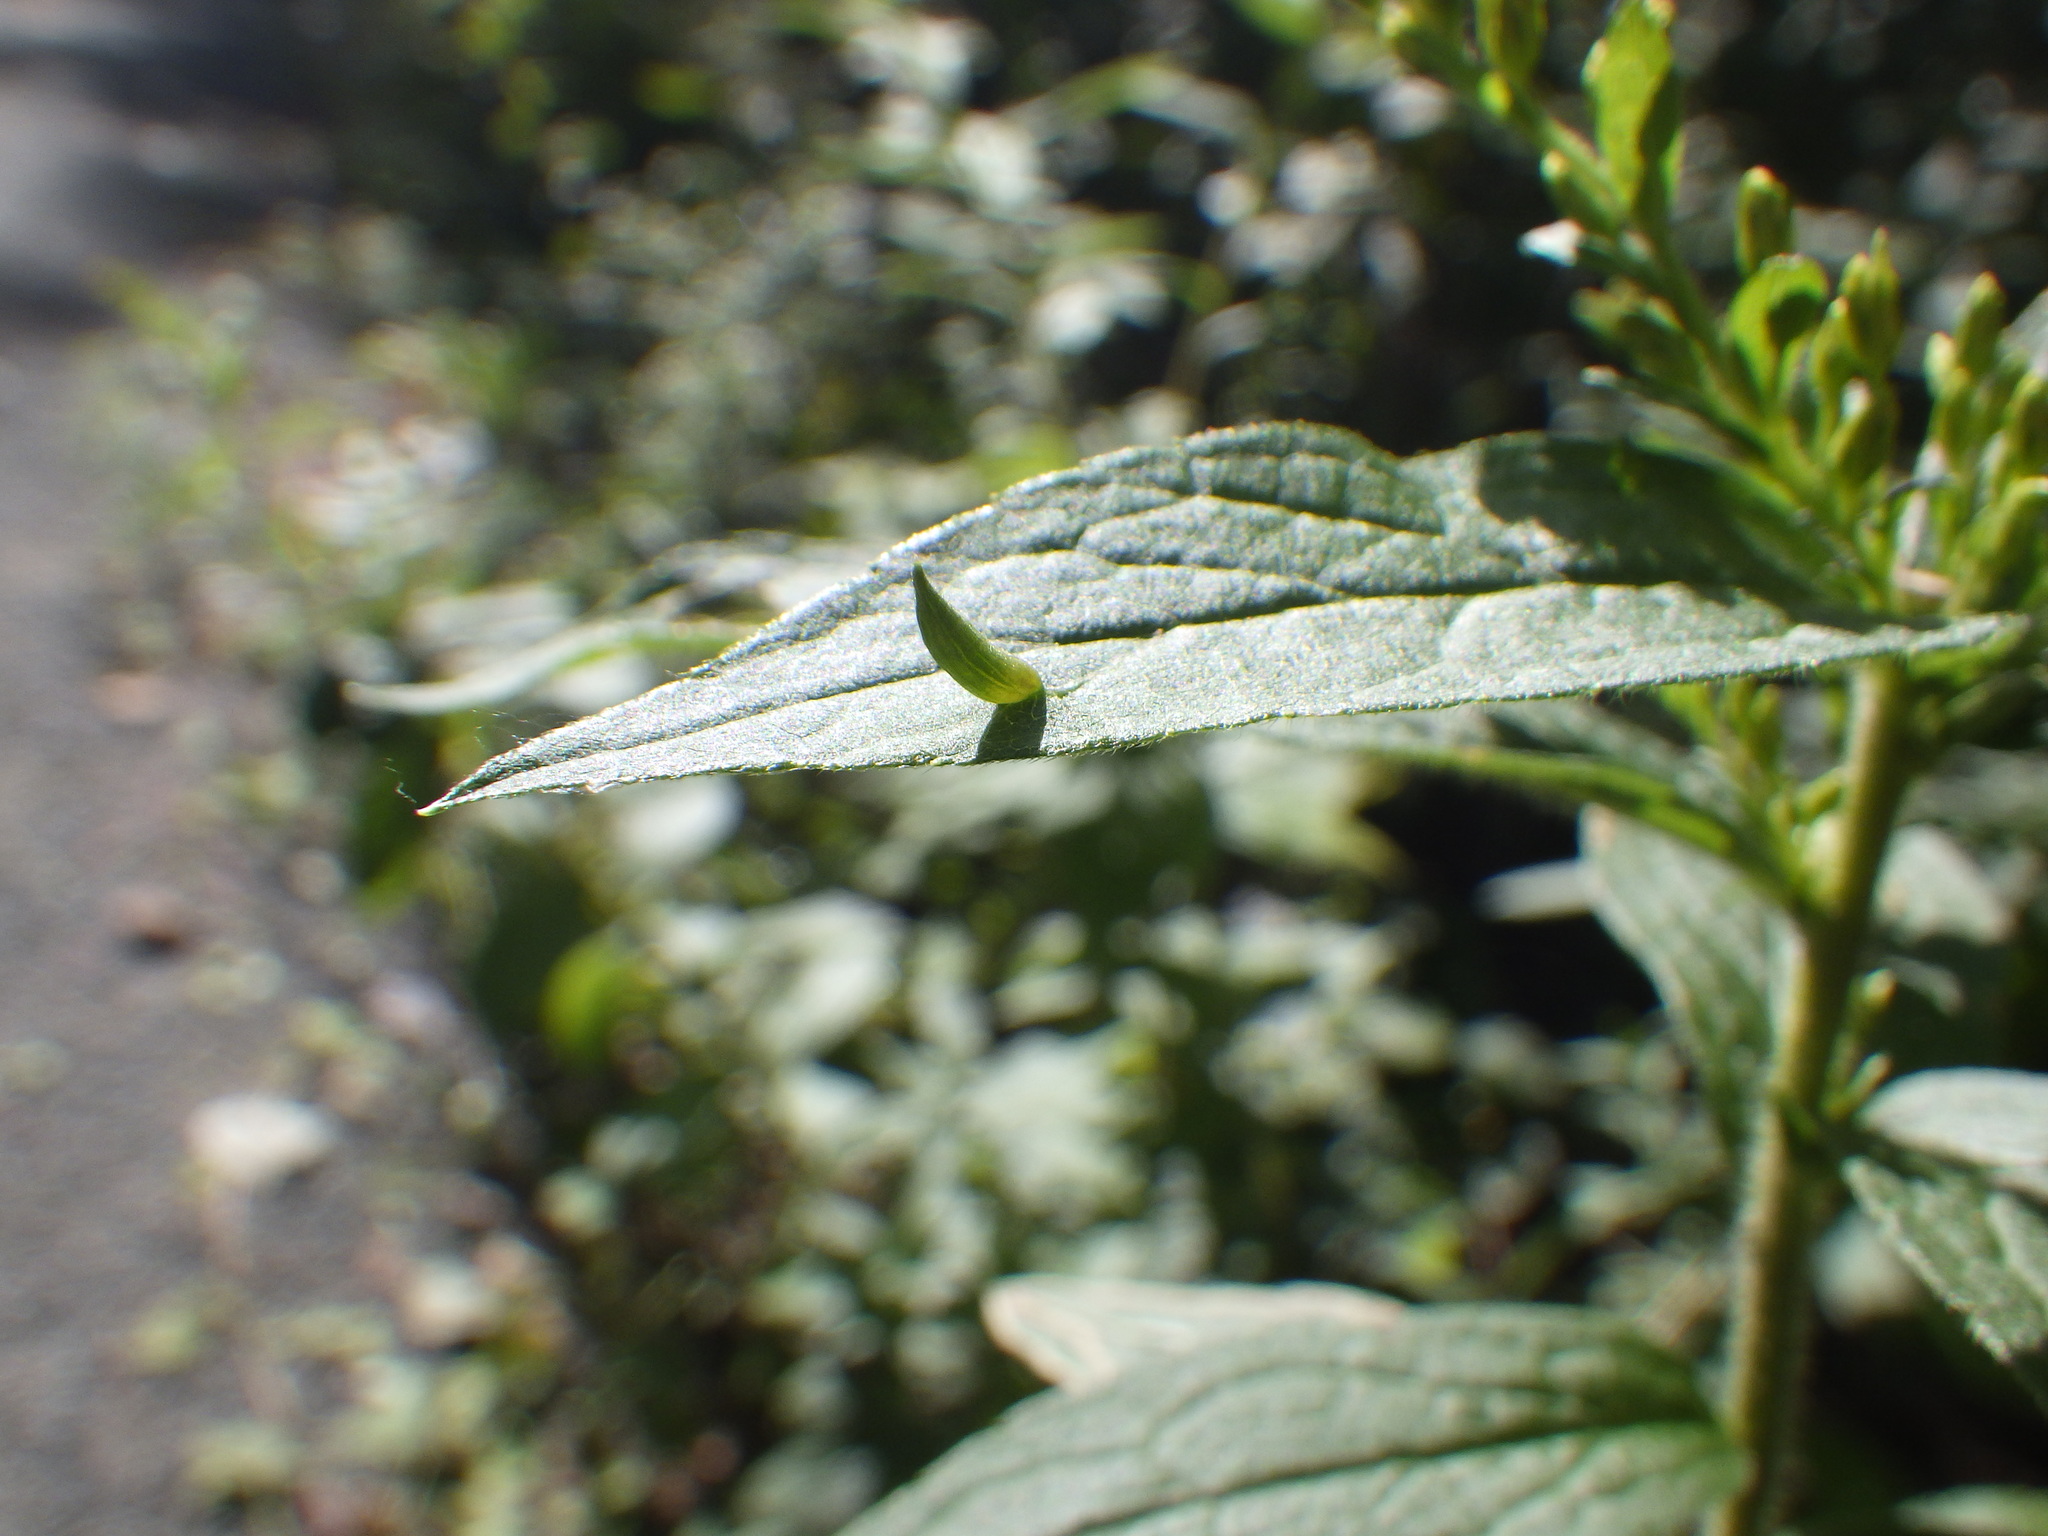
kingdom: Animalia
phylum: Arthropoda
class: Insecta
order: Diptera
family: Cecidomyiidae
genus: Rhopalomyia
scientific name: Rhopalomyia clarkei
